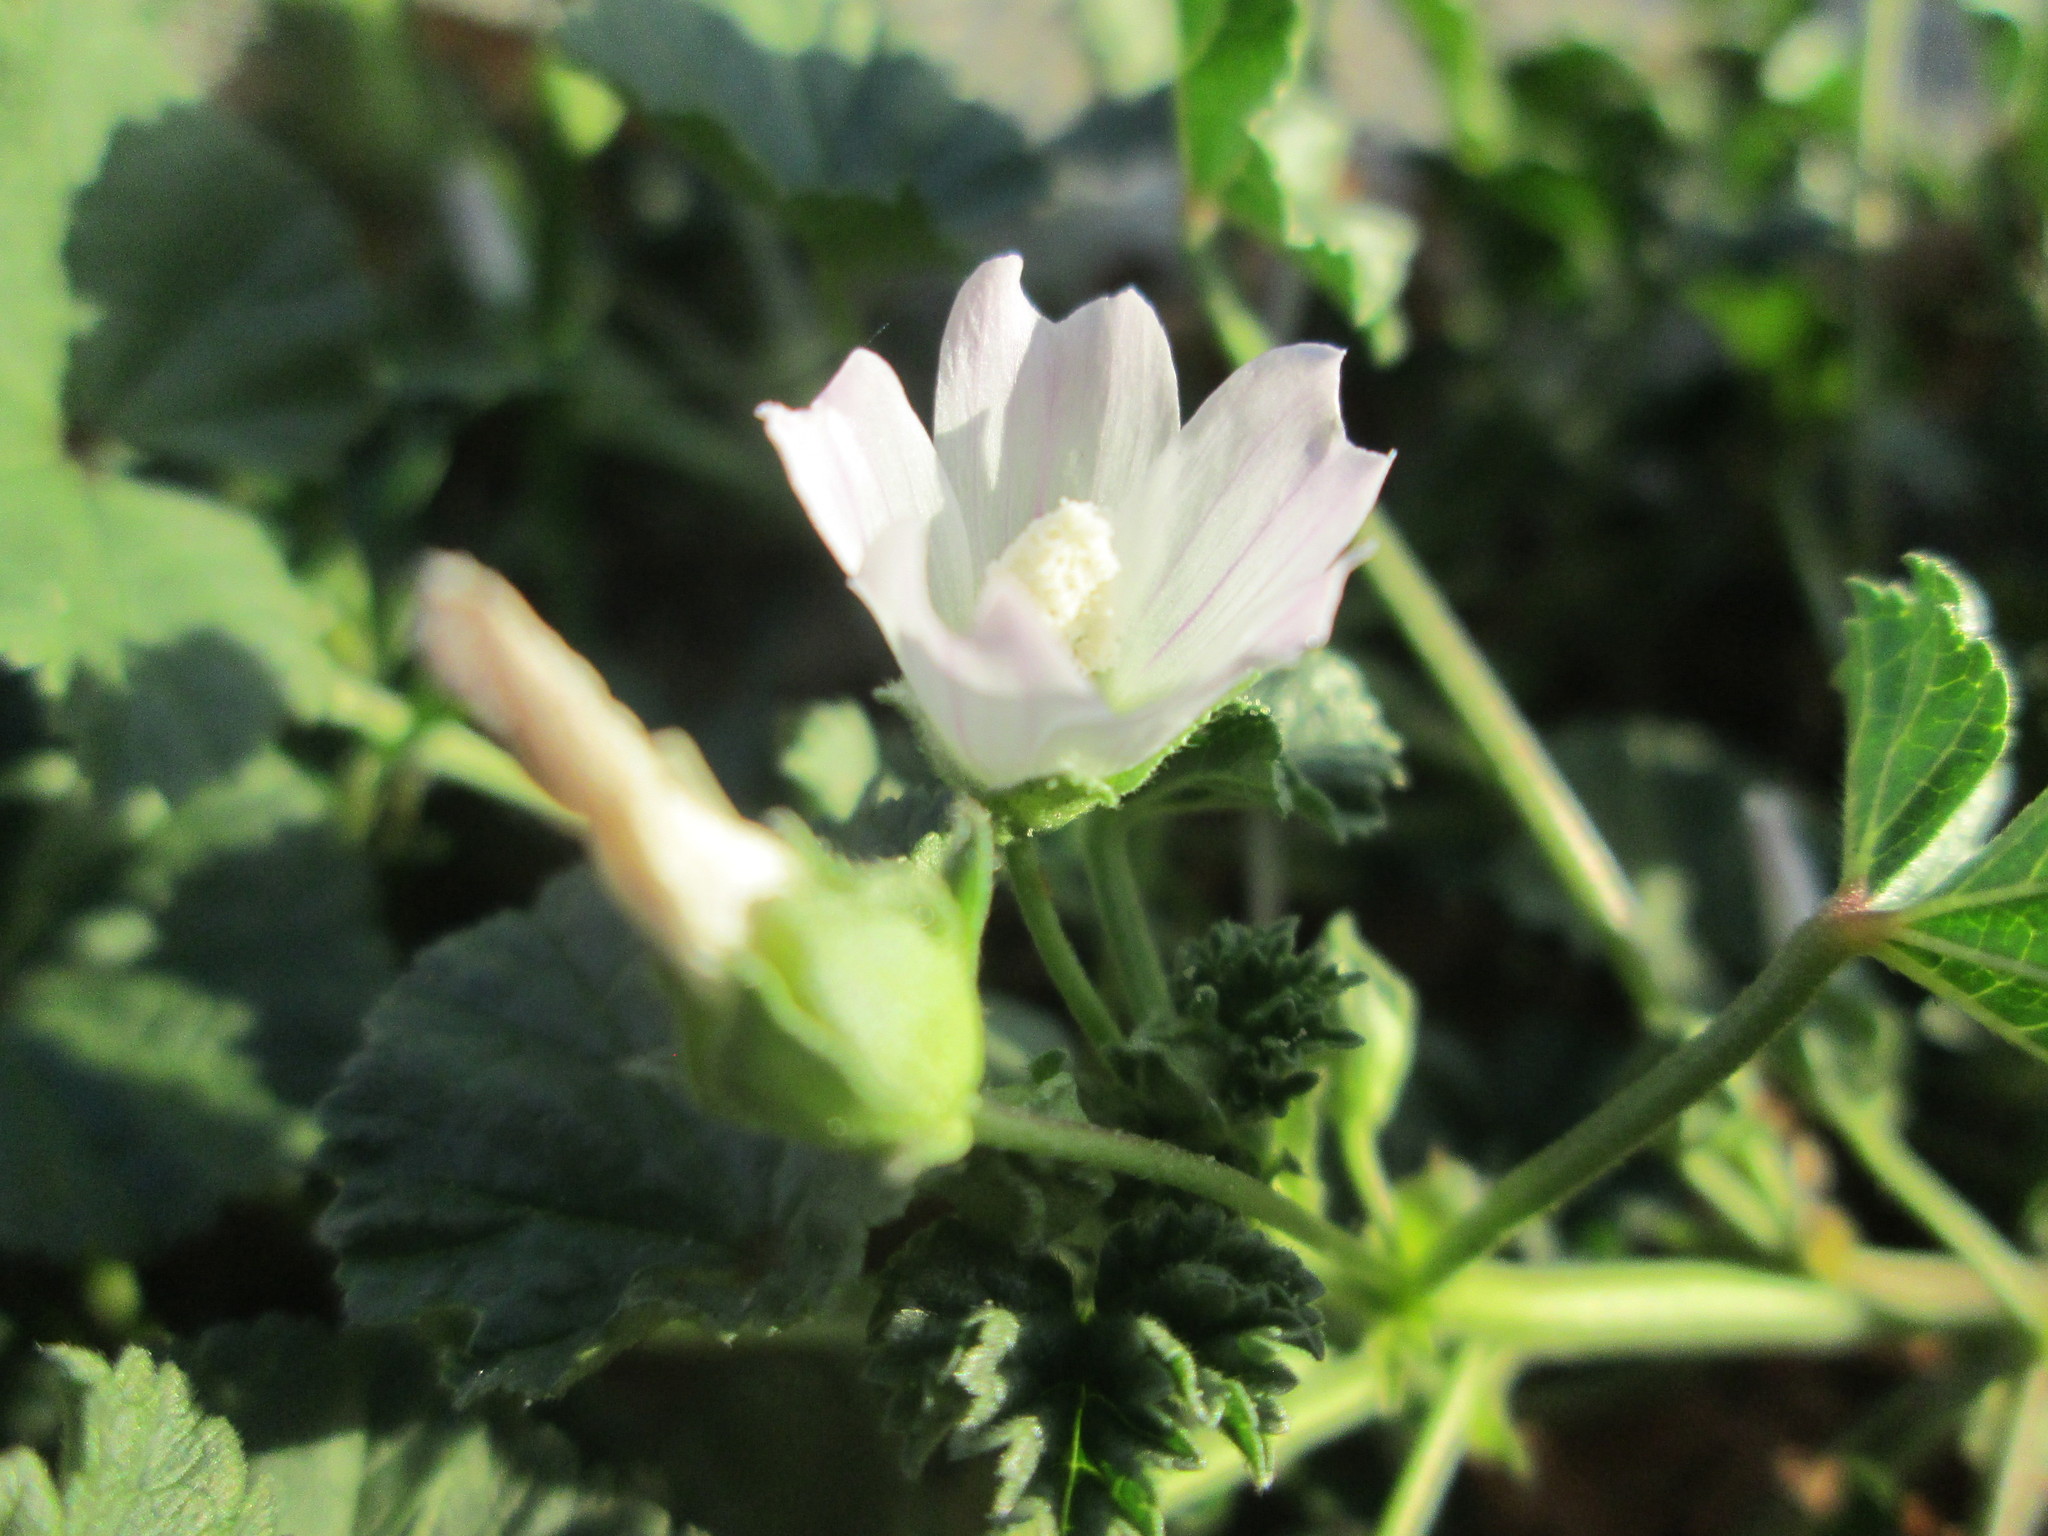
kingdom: Plantae
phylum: Tracheophyta
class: Magnoliopsida
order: Malvales
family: Malvaceae
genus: Malva
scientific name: Malva neglecta
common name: Common mallow
